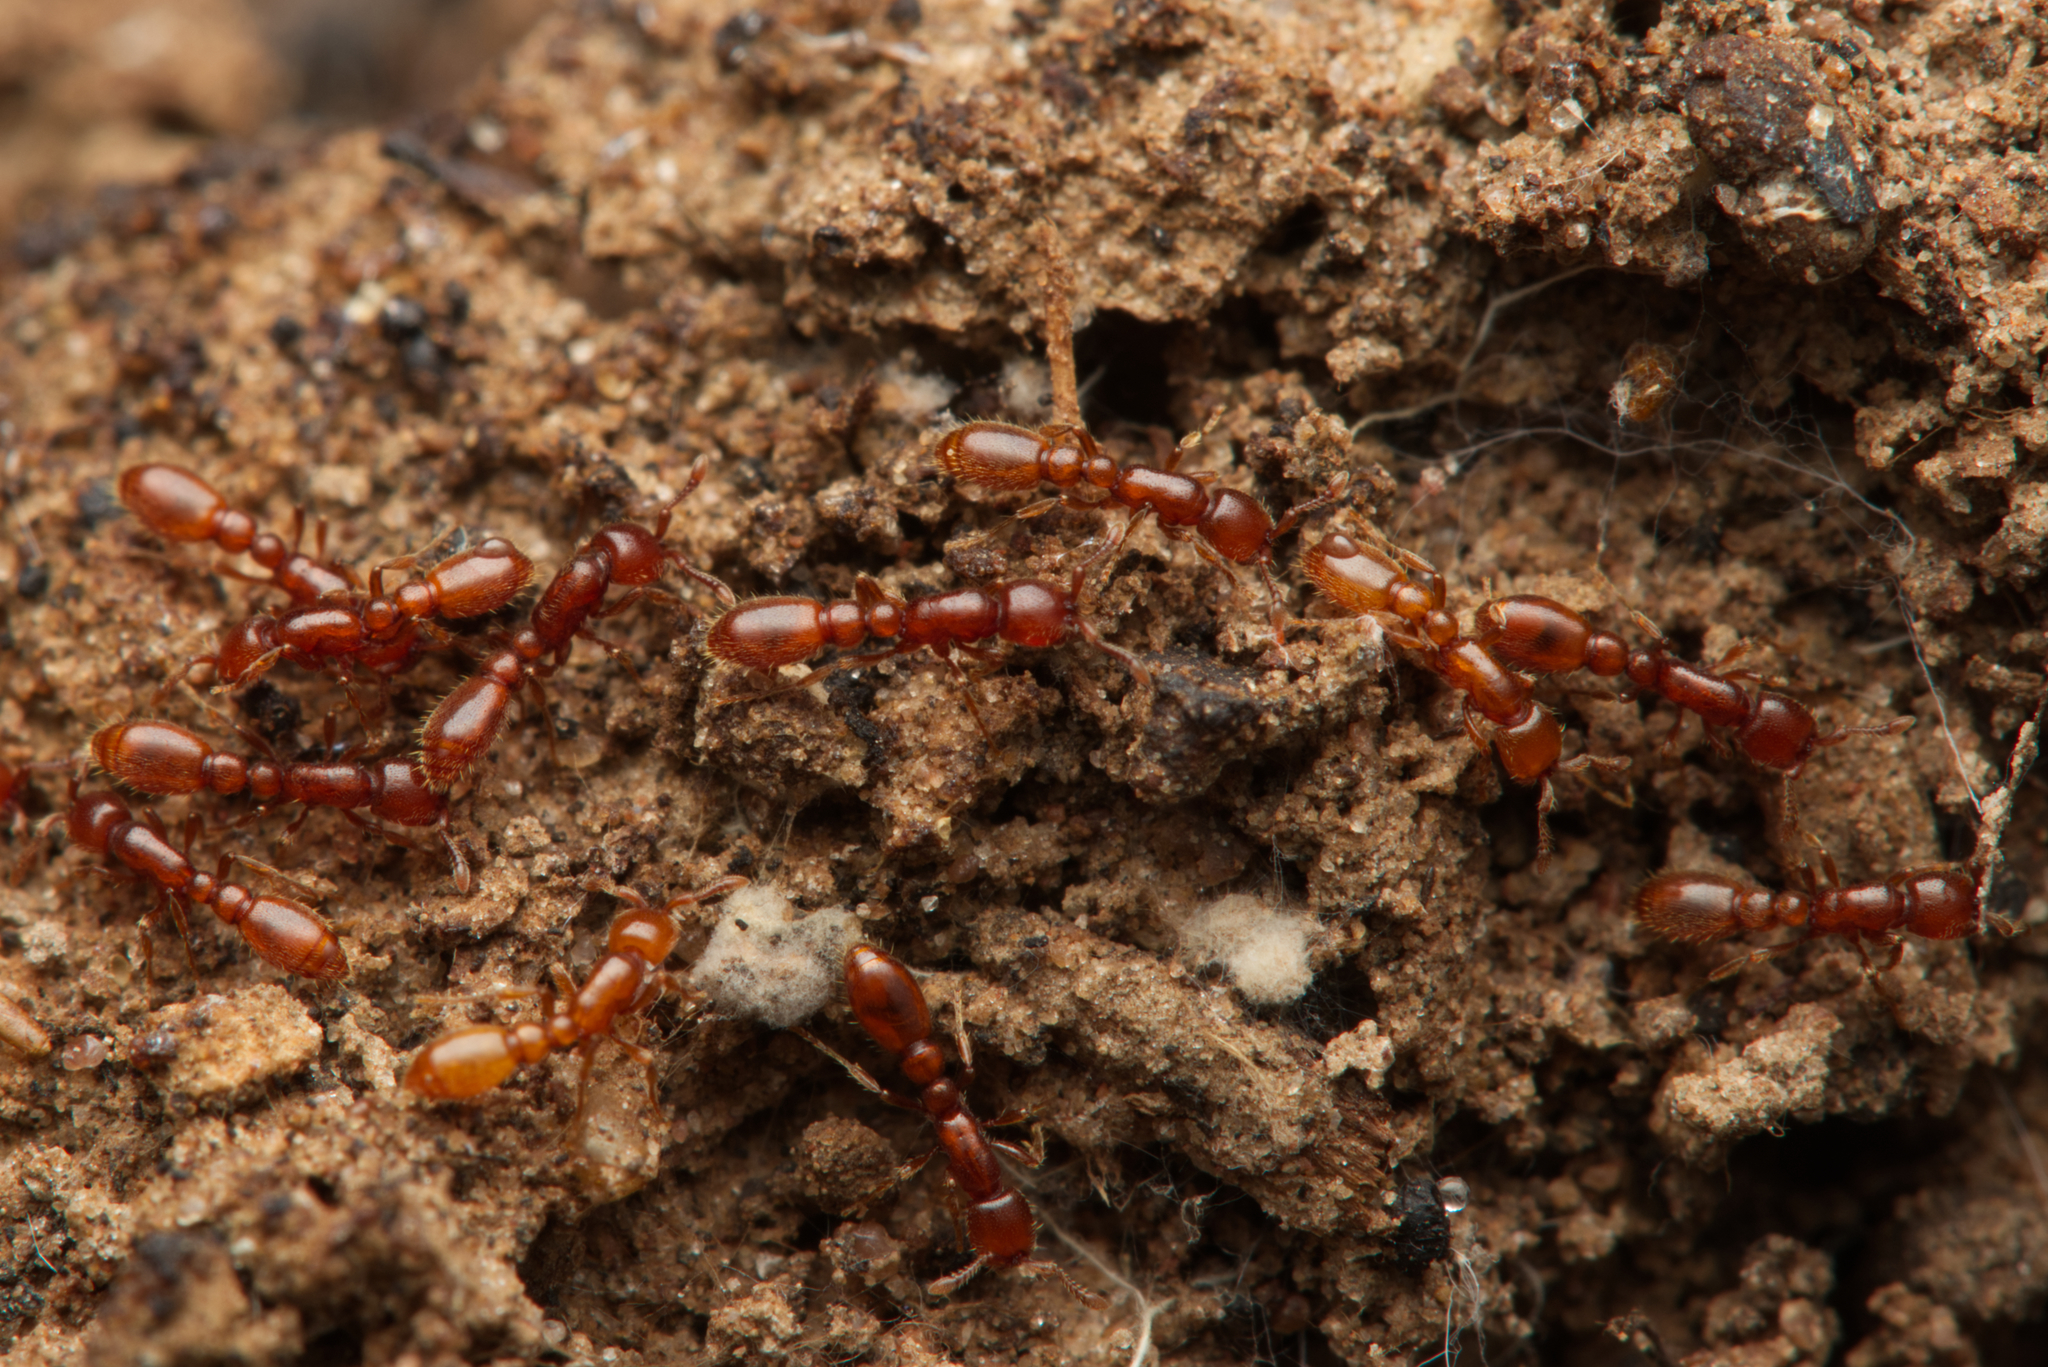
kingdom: Animalia
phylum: Arthropoda
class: Insecta
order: Hymenoptera
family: Formicidae
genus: Ooceraea
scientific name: Ooceraea
